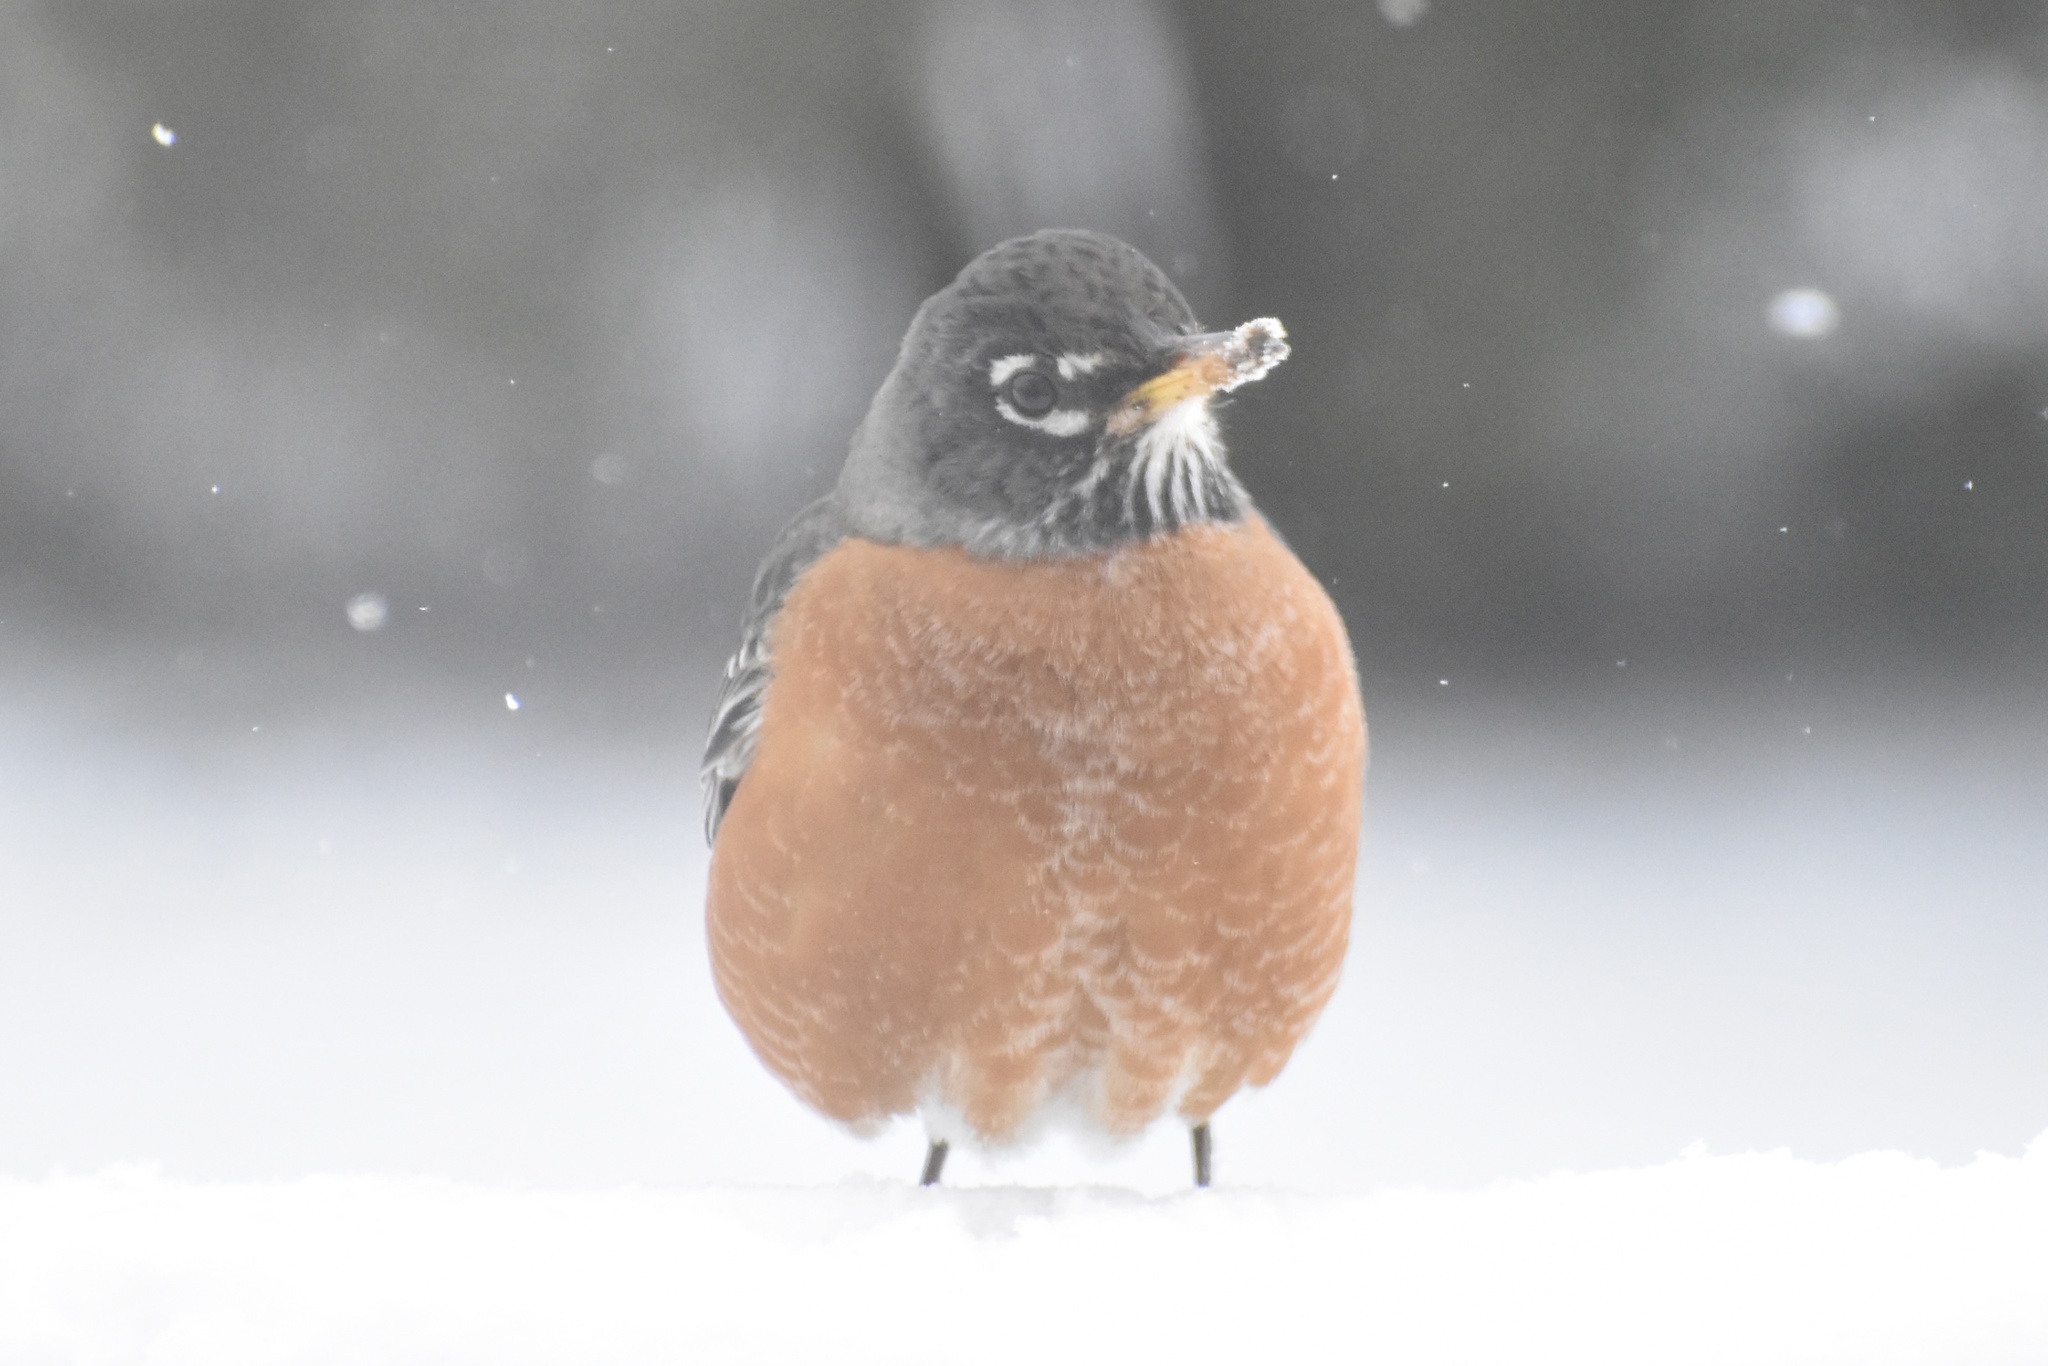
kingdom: Animalia
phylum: Chordata
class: Aves
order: Passeriformes
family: Turdidae
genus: Turdus
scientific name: Turdus migratorius
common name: American robin
